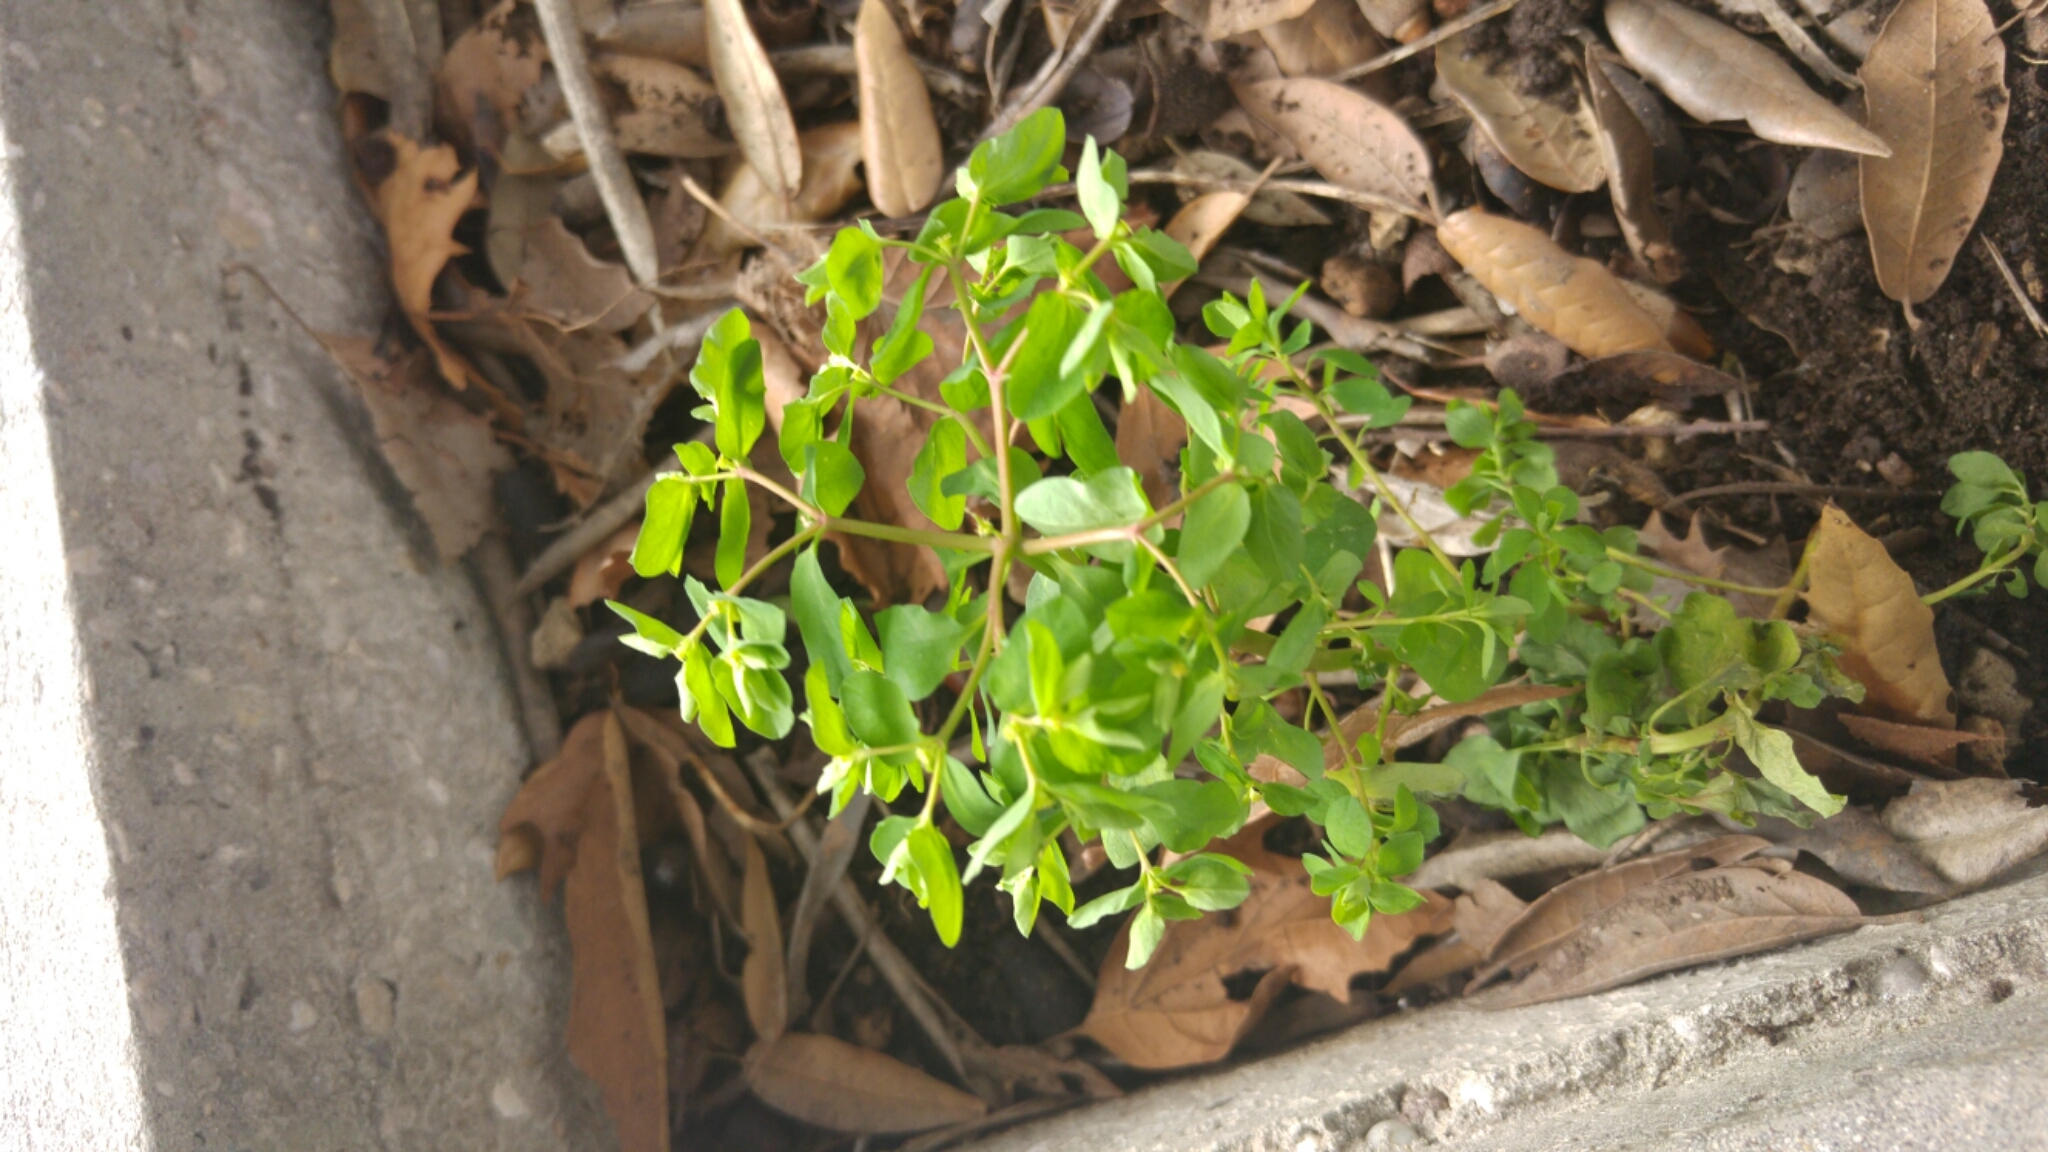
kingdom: Plantae
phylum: Tracheophyta
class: Magnoliopsida
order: Malpighiales
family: Euphorbiaceae
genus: Euphorbia
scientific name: Euphorbia peplus
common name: Petty spurge
